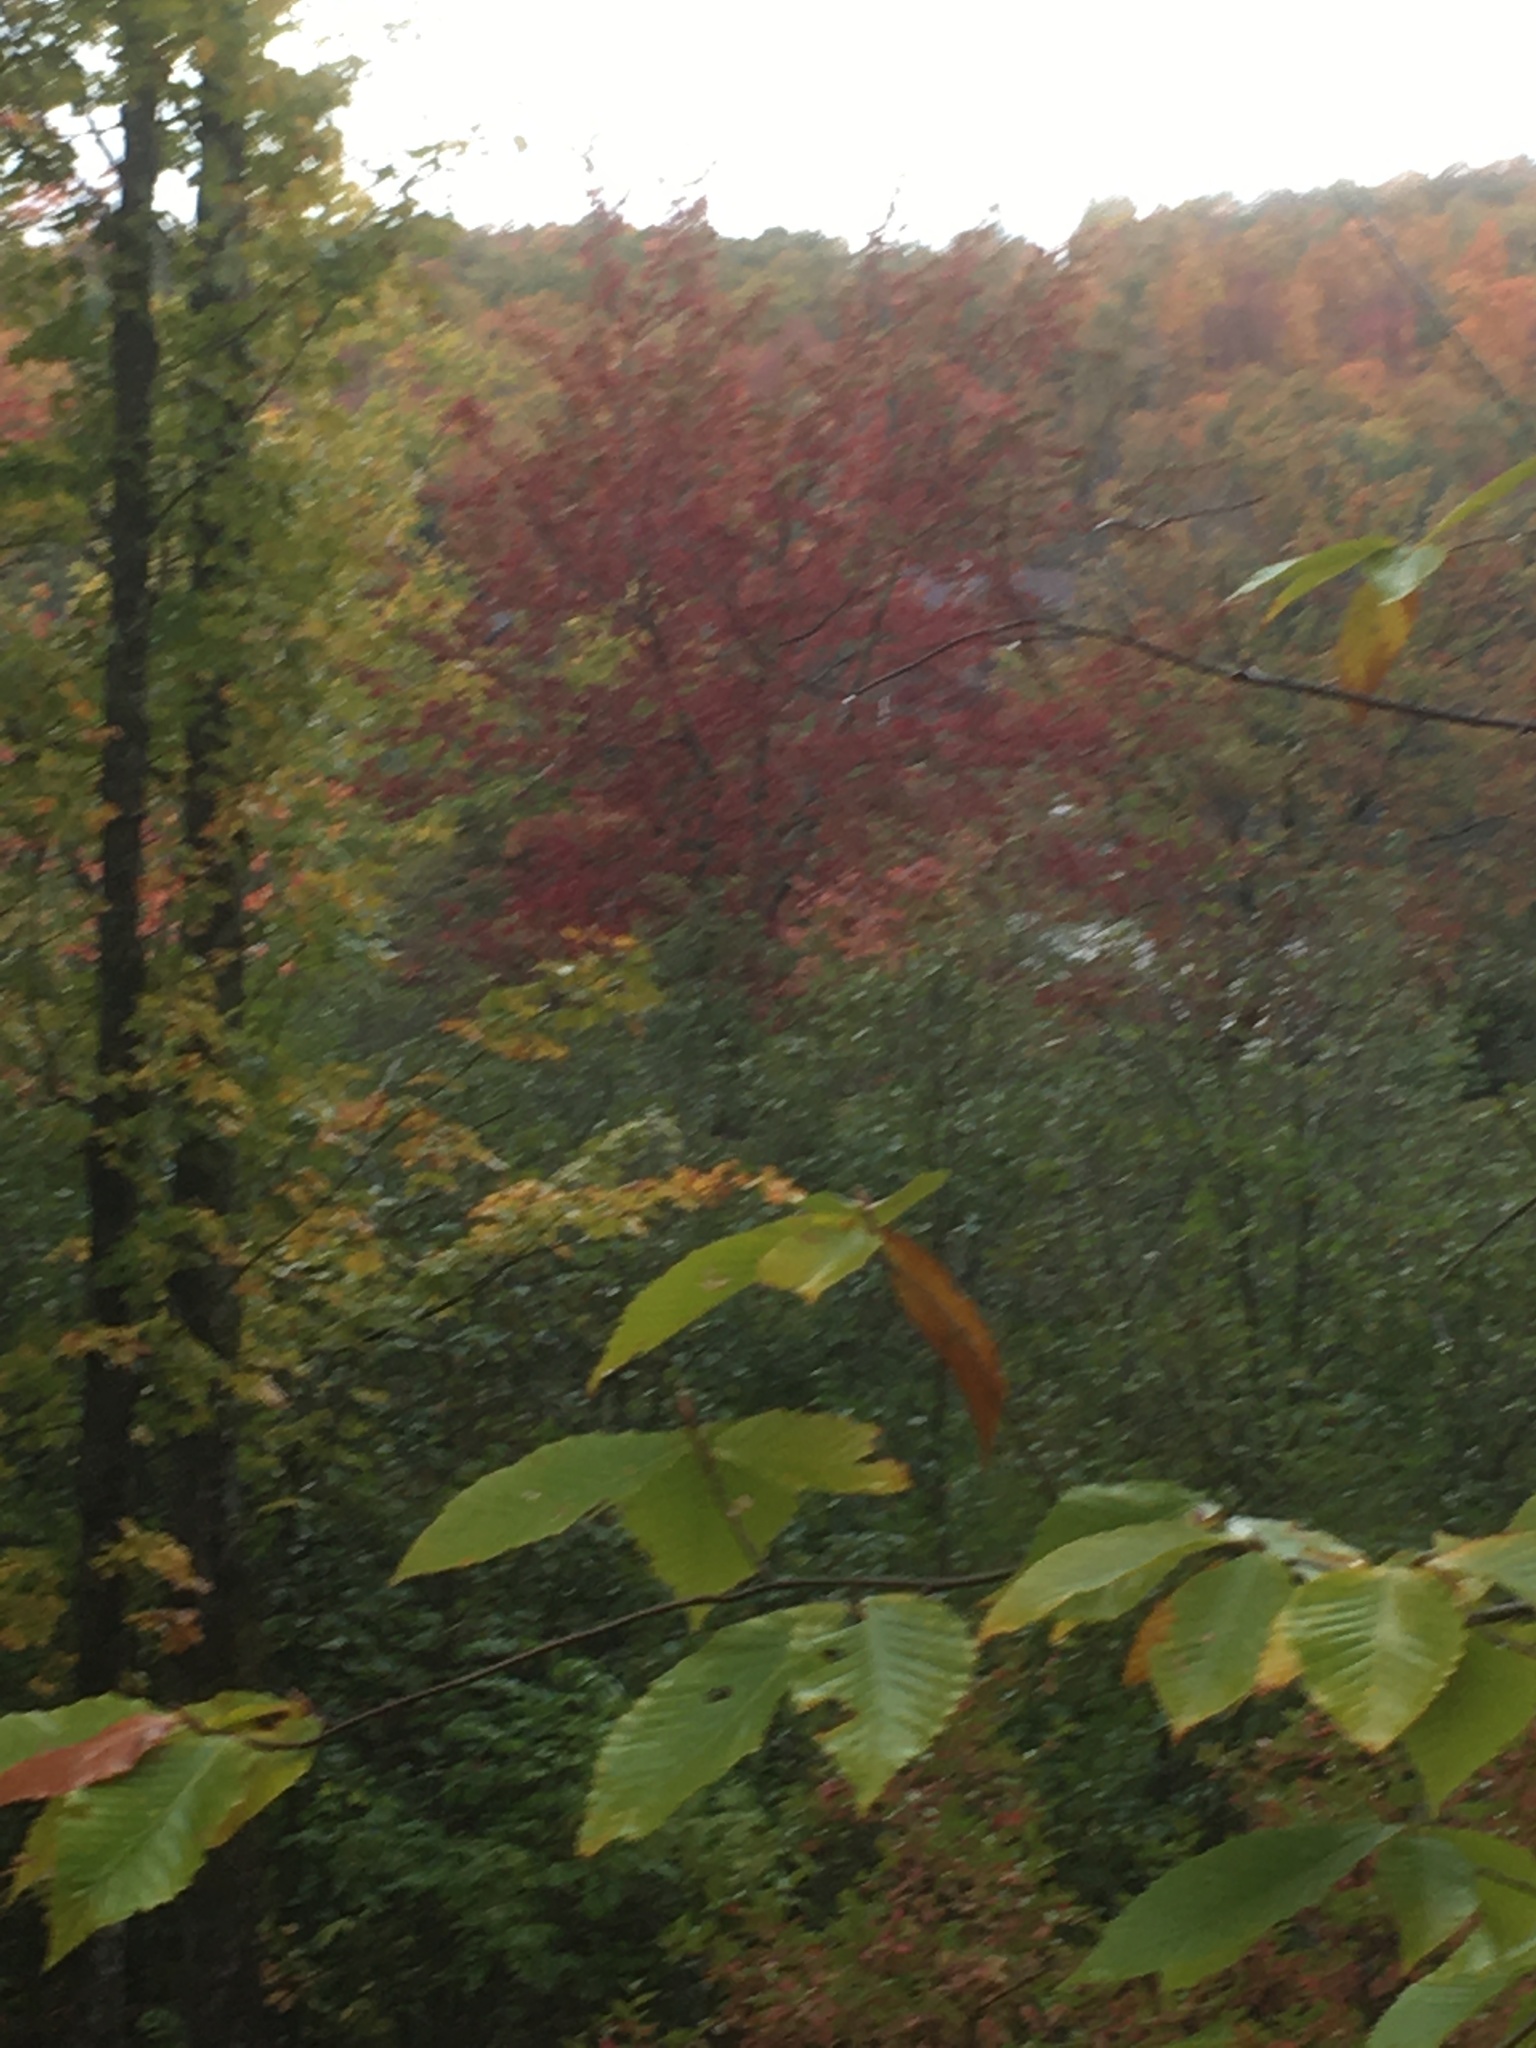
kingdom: Plantae
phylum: Tracheophyta
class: Magnoliopsida
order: Sapindales
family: Sapindaceae
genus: Acer
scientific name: Acer rubrum
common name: Red maple
